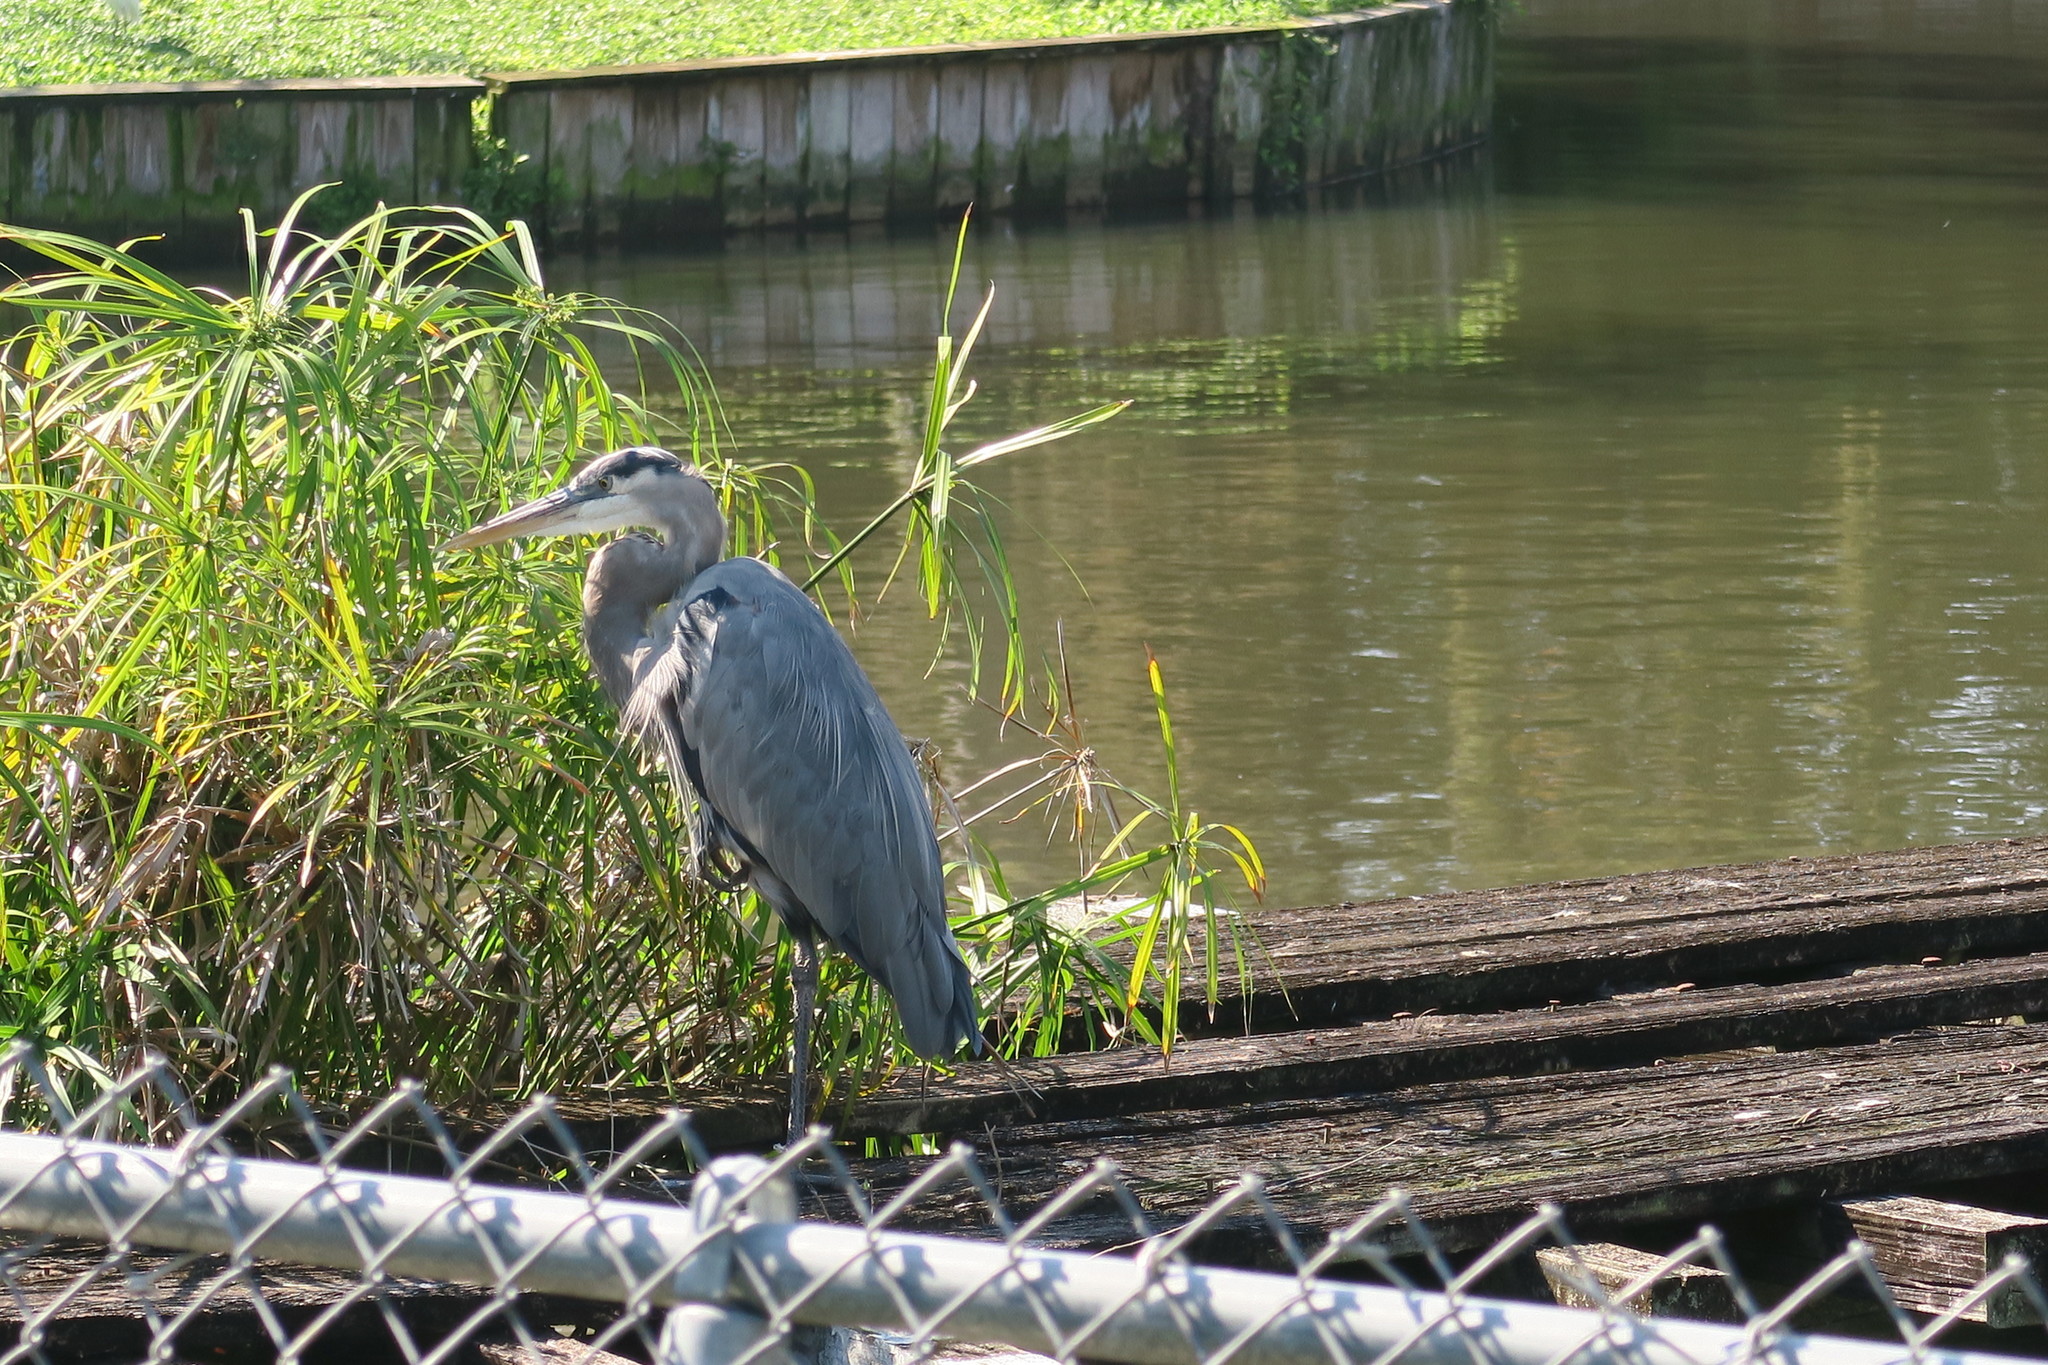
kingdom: Animalia
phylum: Chordata
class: Aves
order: Pelecaniformes
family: Ardeidae
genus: Ardea
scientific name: Ardea herodias
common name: Great blue heron
